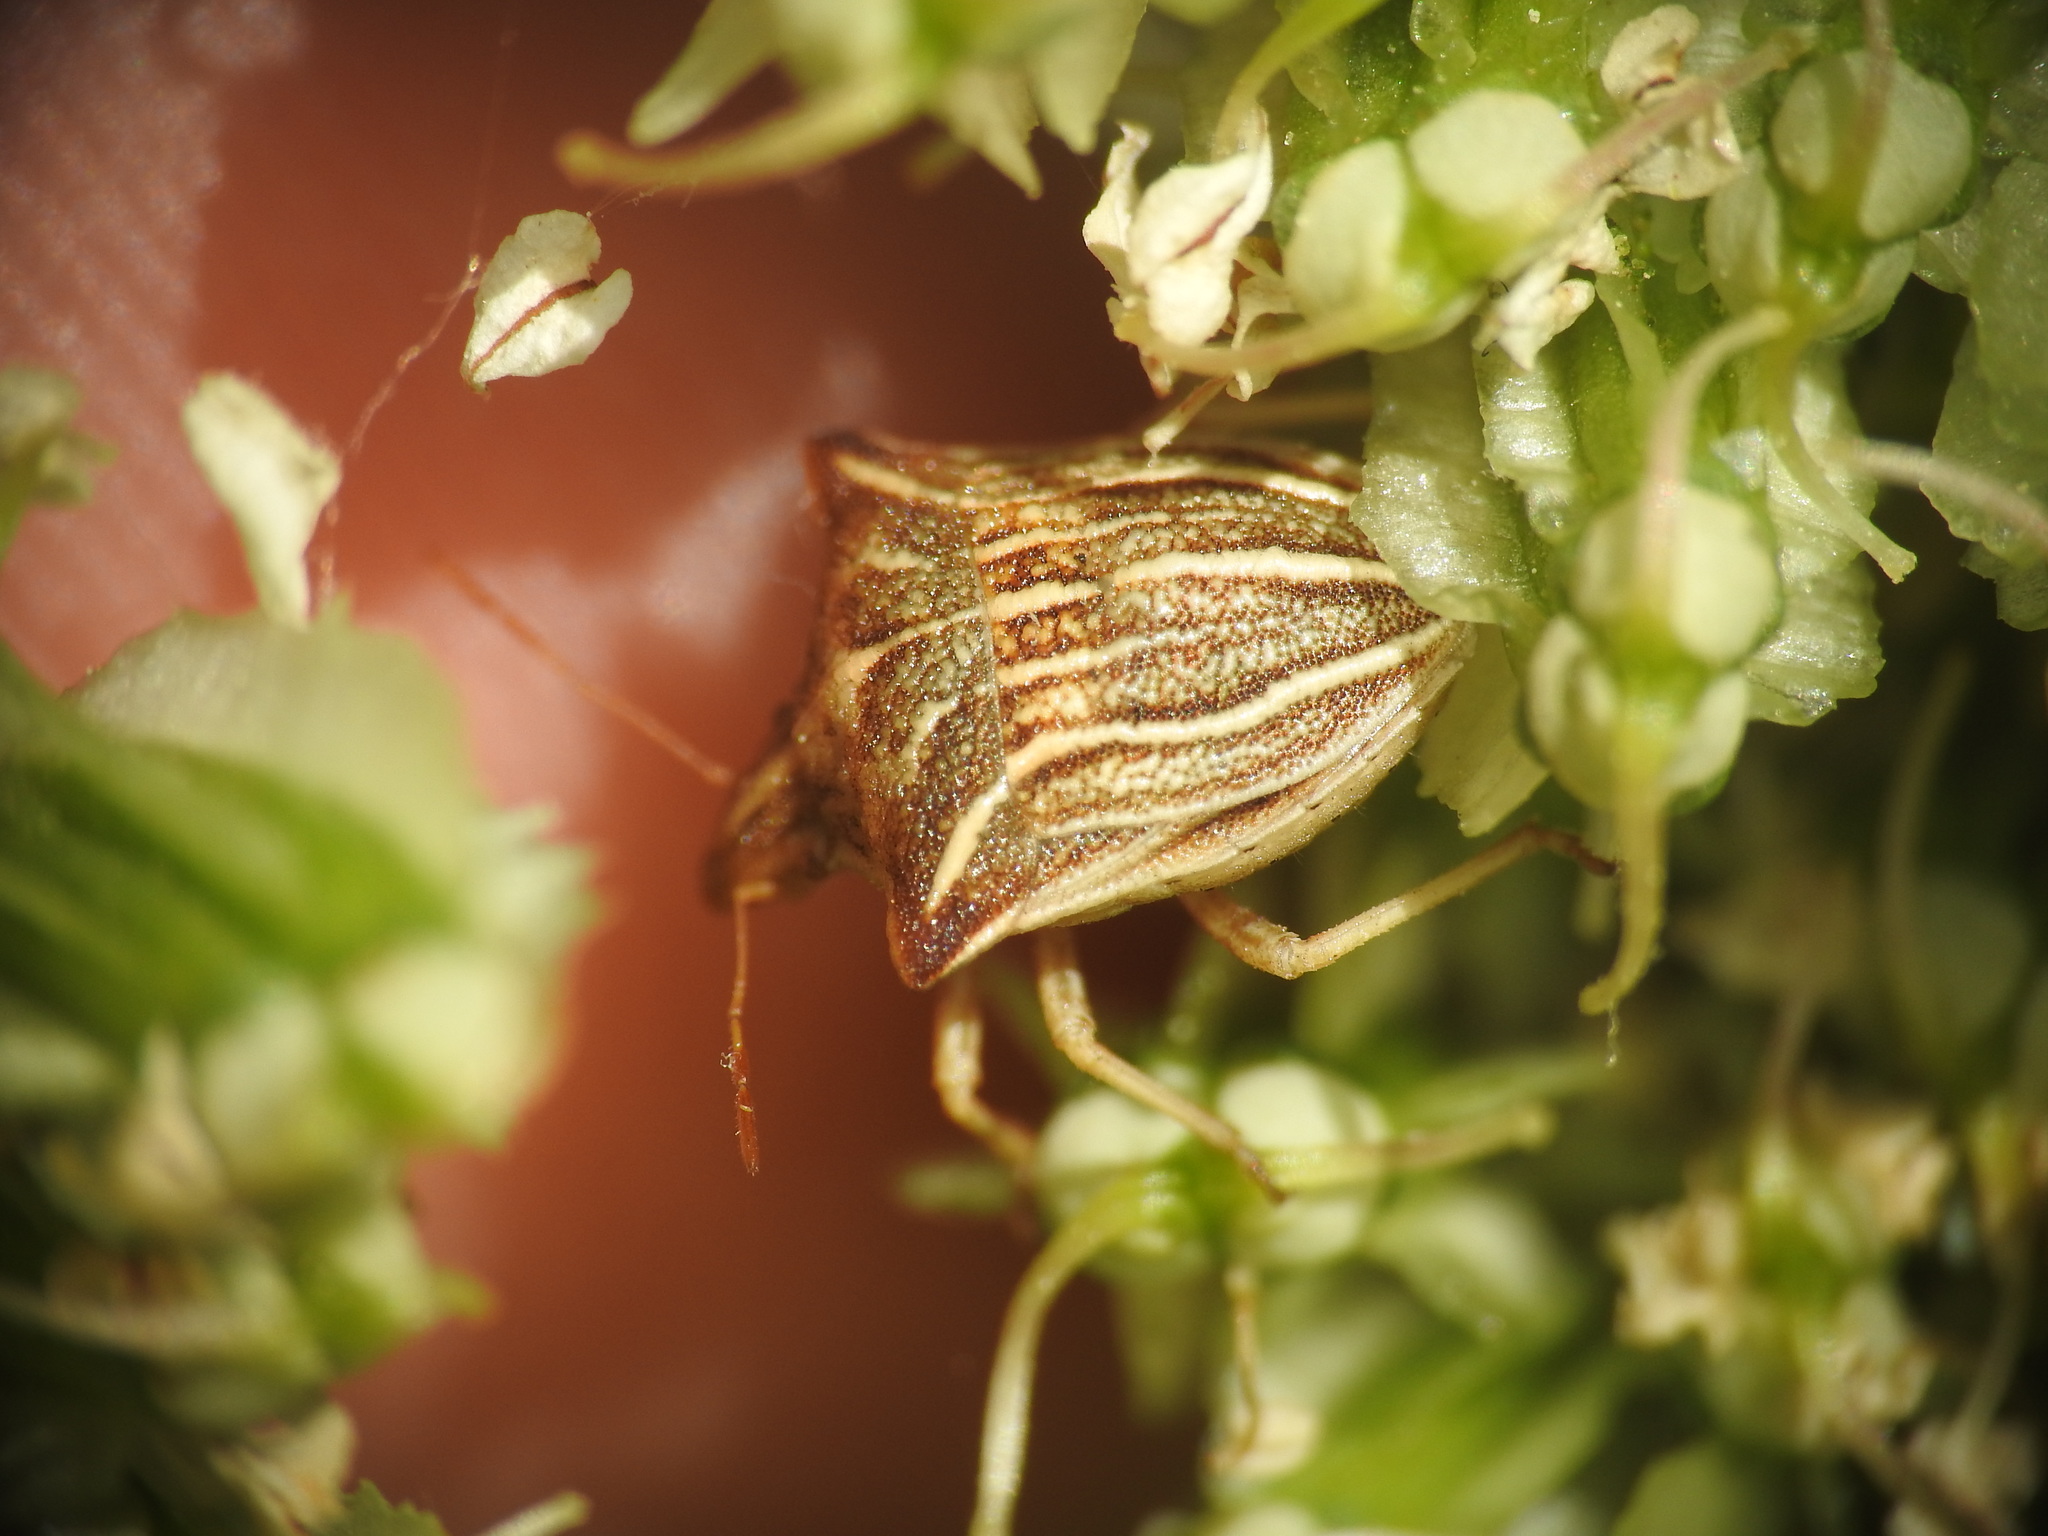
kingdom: Animalia
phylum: Arthropoda
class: Insecta
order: Hemiptera
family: Pentatomidae
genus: Ancyrosoma
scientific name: Ancyrosoma leucogrammes
